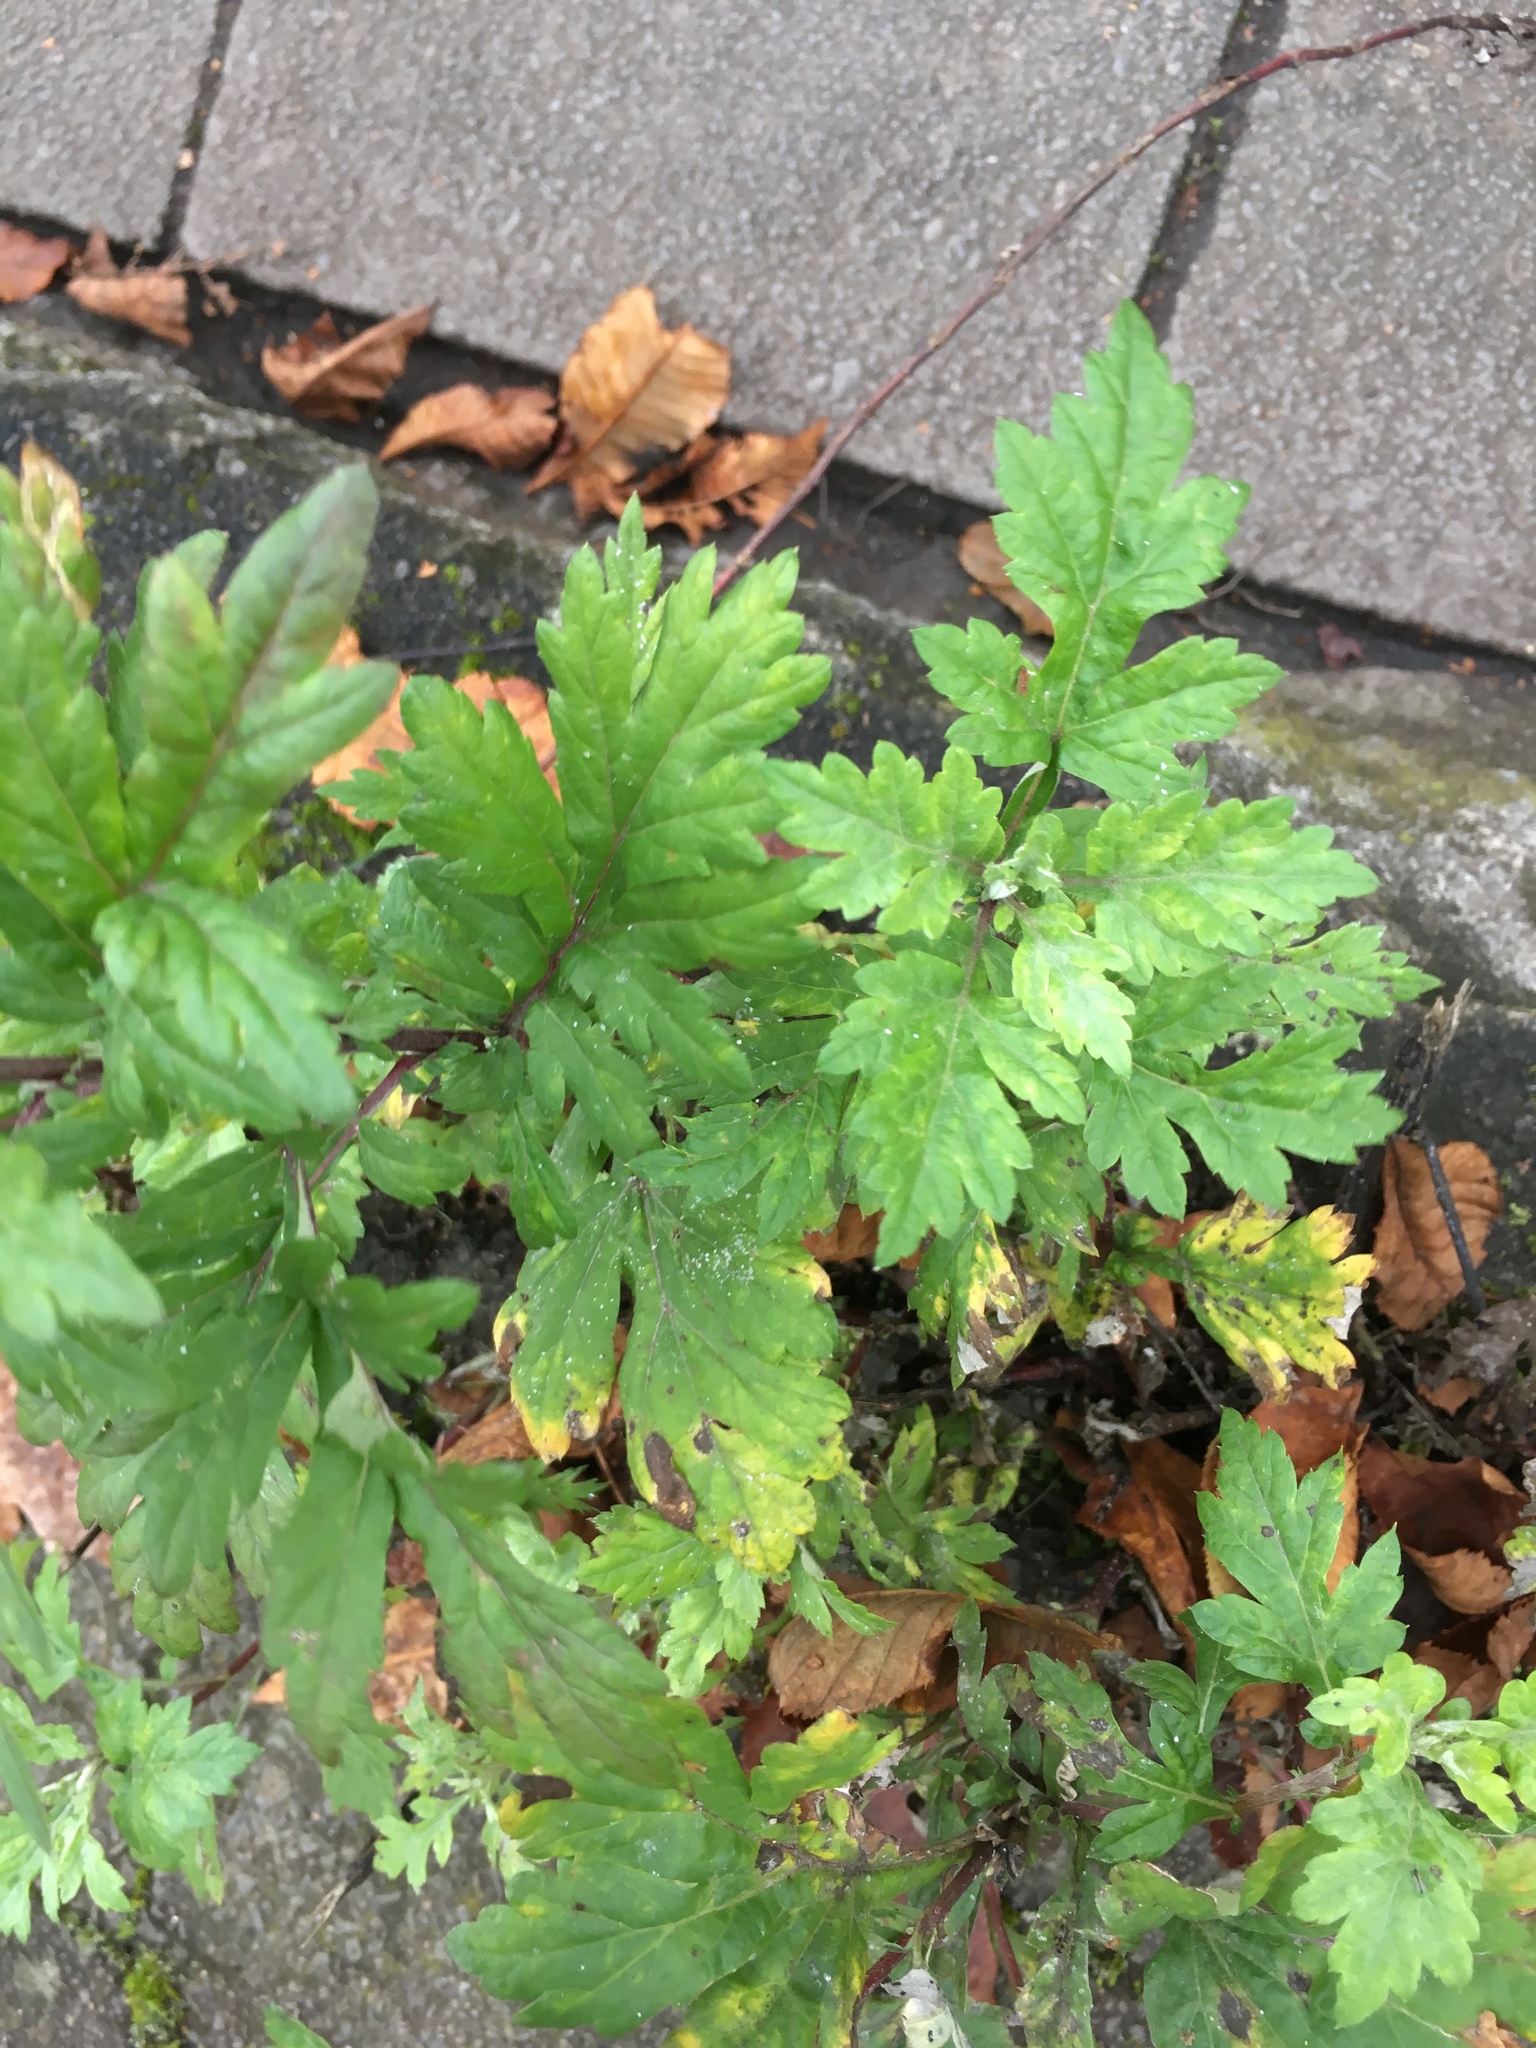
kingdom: Plantae
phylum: Tracheophyta
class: Magnoliopsida
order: Asterales
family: Asteraceae
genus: Artemisia
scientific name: Artemisia vulgaris
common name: Mugwort
